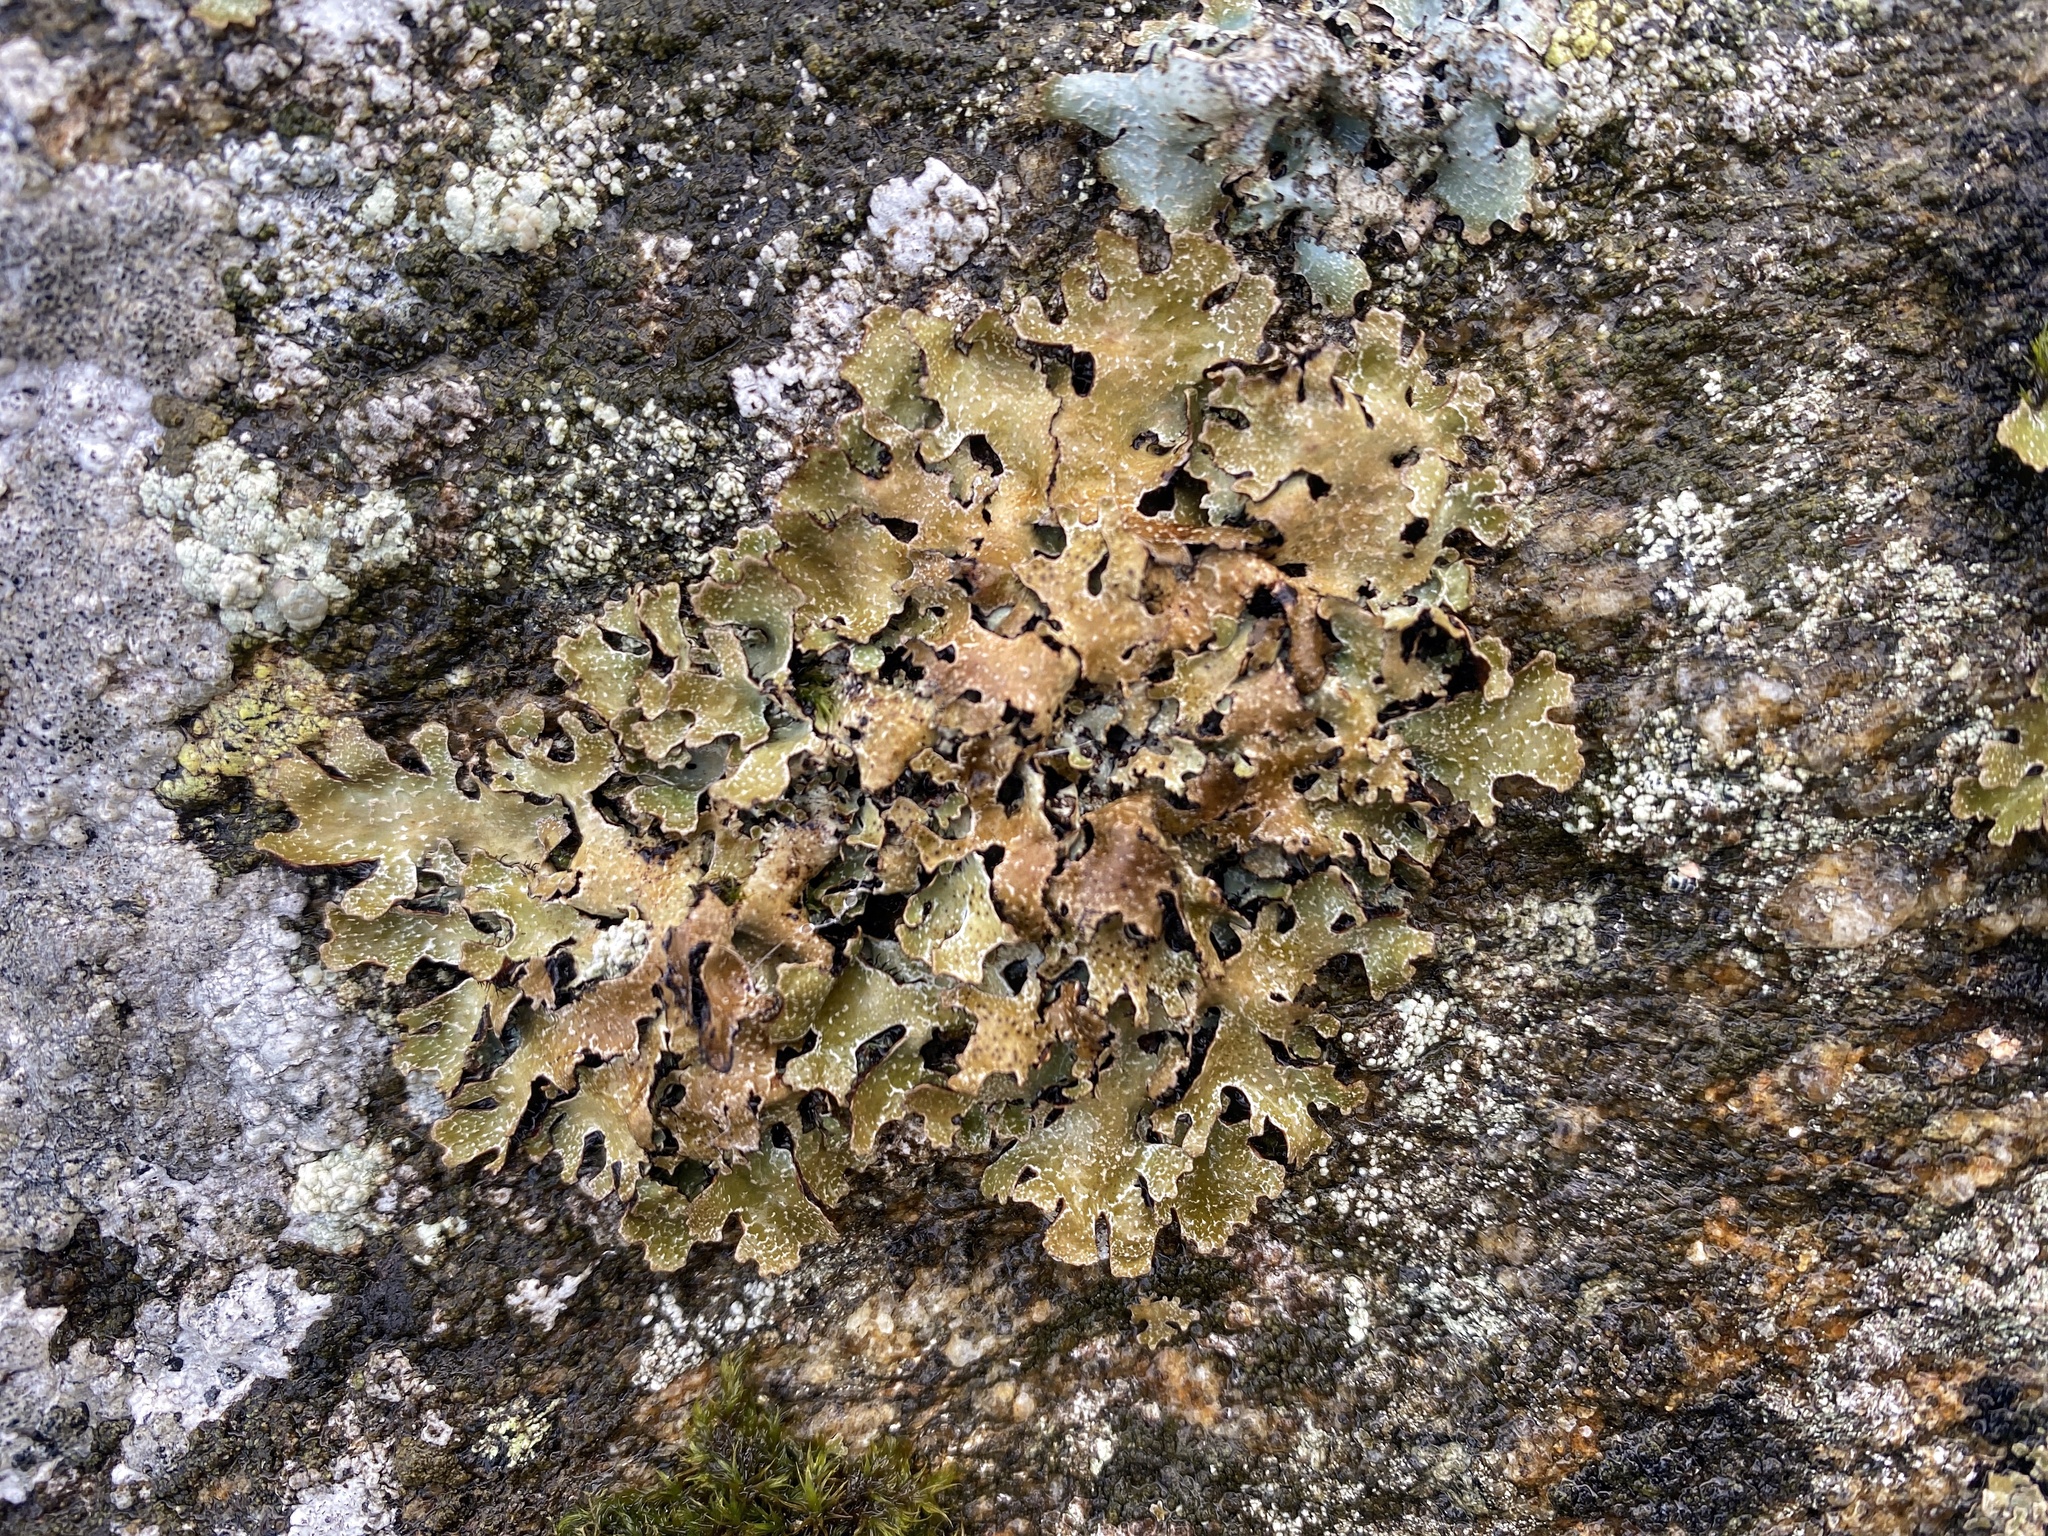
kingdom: Fungi
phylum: Ascomycota
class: Lecanoromycetes
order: Lecanorales
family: Parmeliaceae
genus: Parmelia
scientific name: Parmelia omphalodes
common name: Smoky crottle
